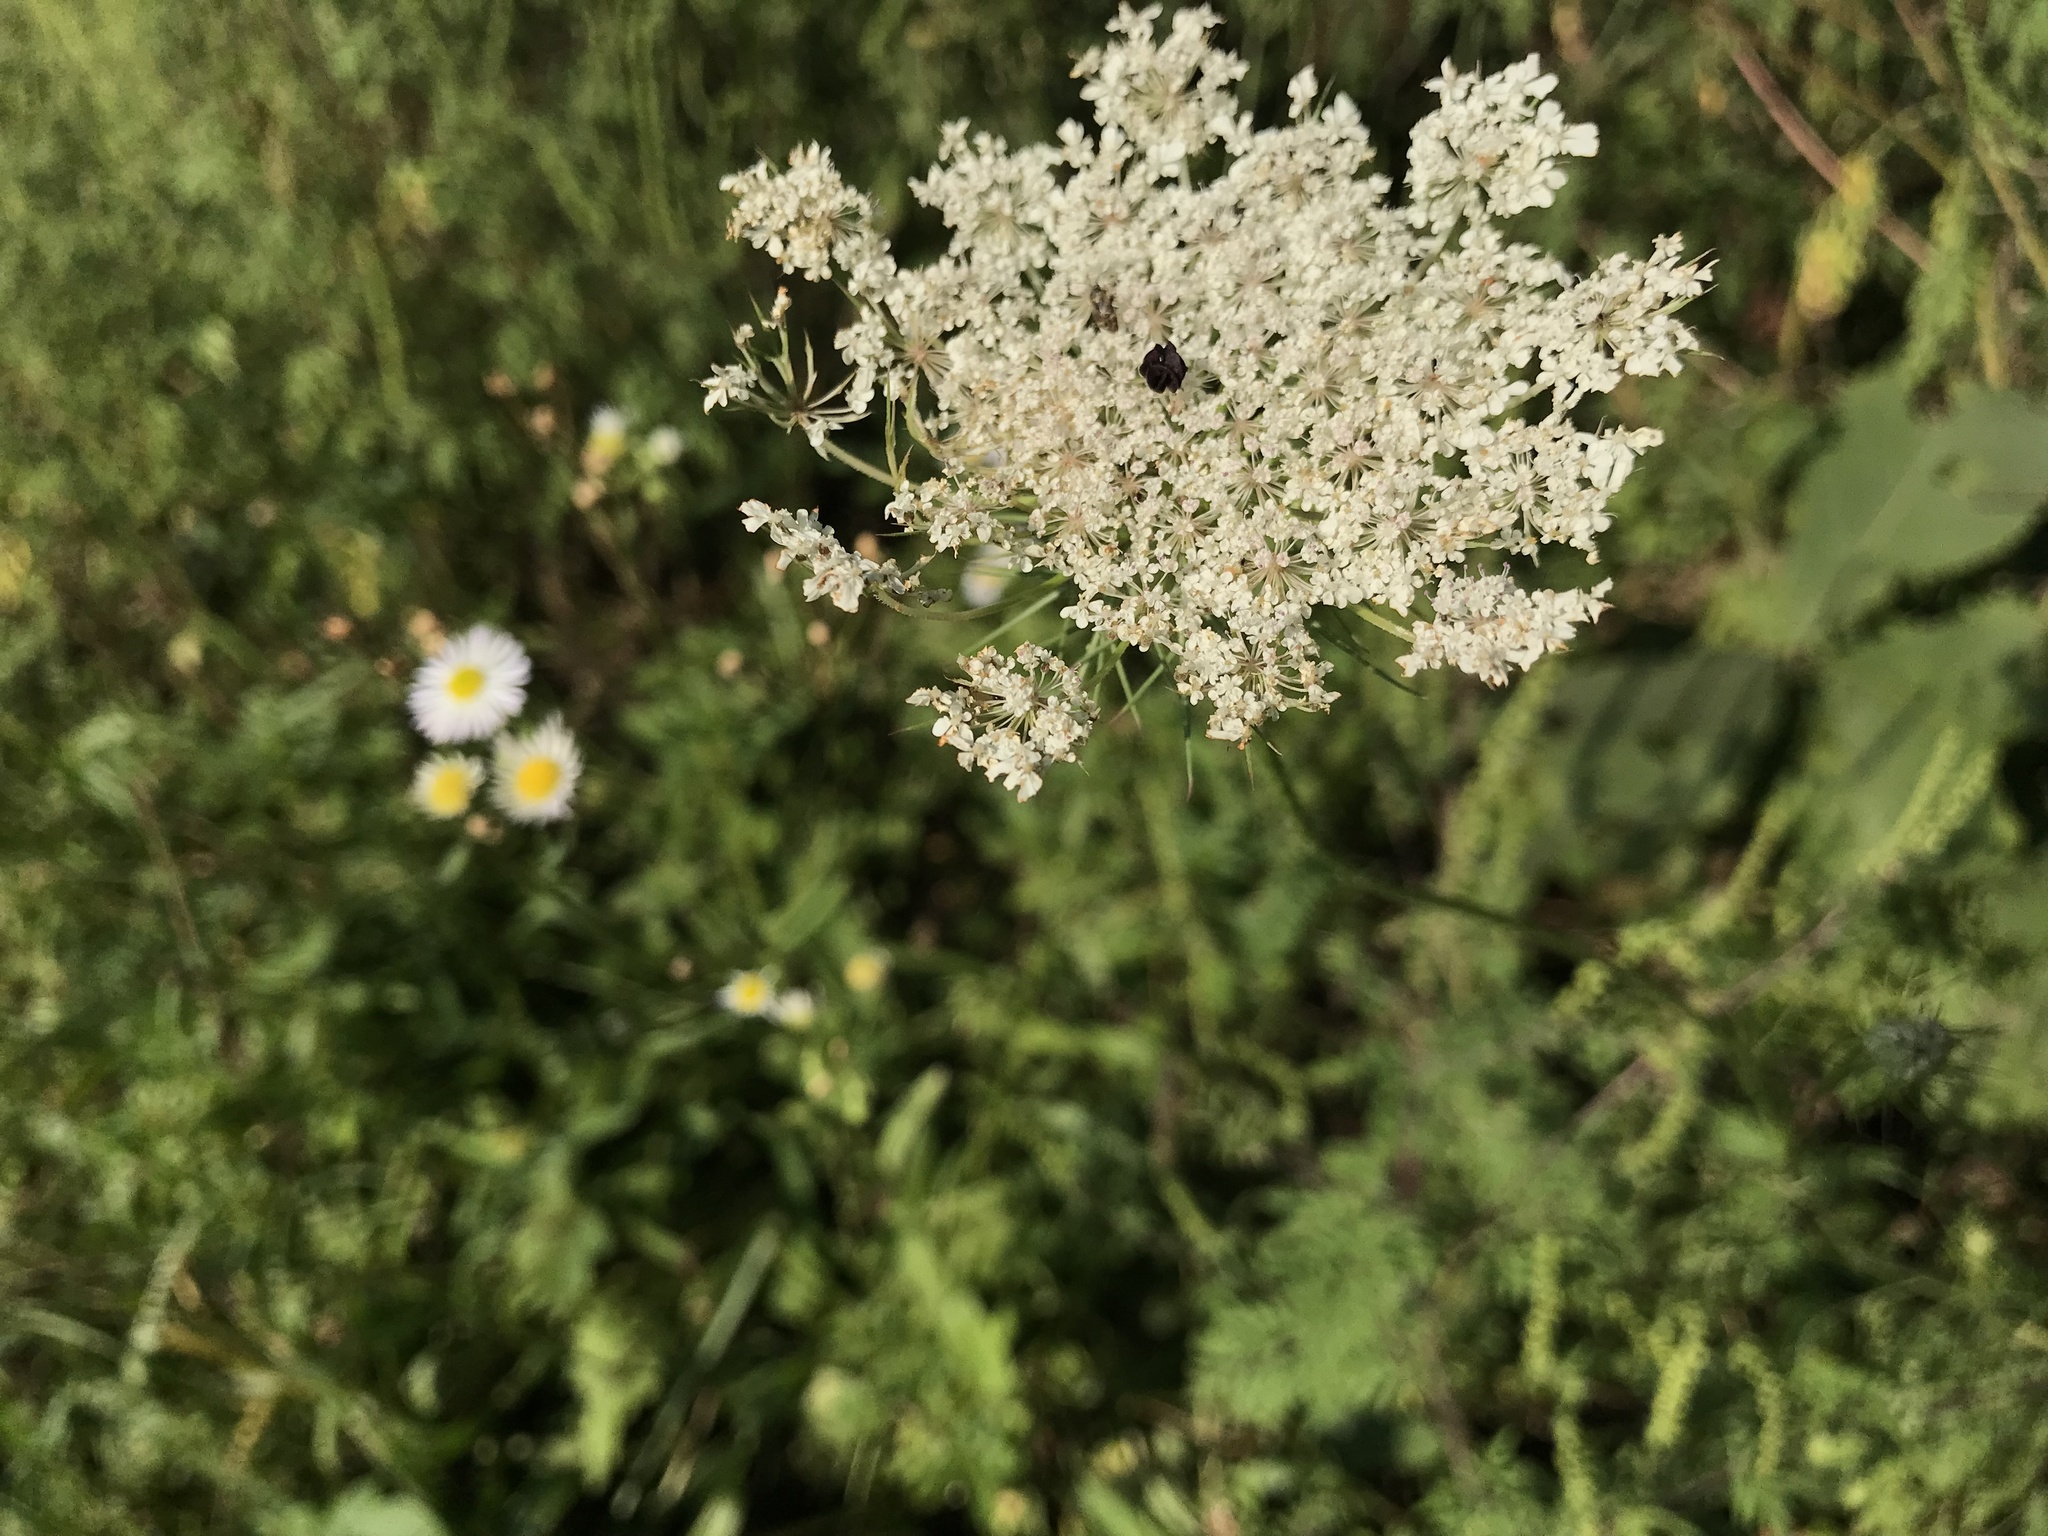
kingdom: Plantae
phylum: Tracheophyta
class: Magnoliopsida
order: Apiales
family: Apiaceae
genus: Daucus
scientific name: Daucus carota
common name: Wild carrot
